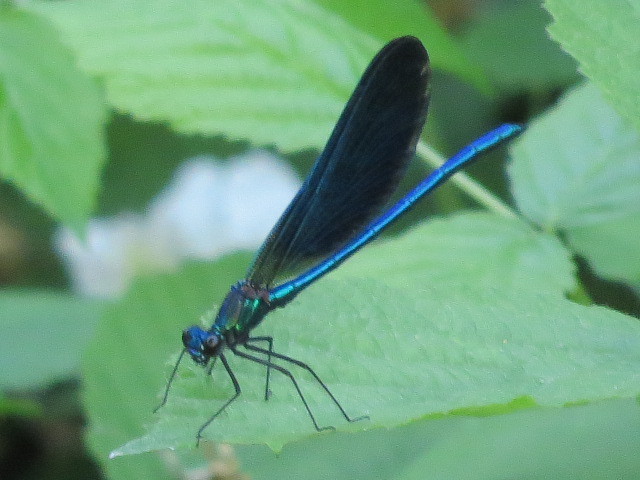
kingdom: Animalia
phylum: Arthropoda
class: Insecta
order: Odonata
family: Calopterygidae
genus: Calopteryx
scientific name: Calopteryx virgo
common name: Beautiful demoiselle
